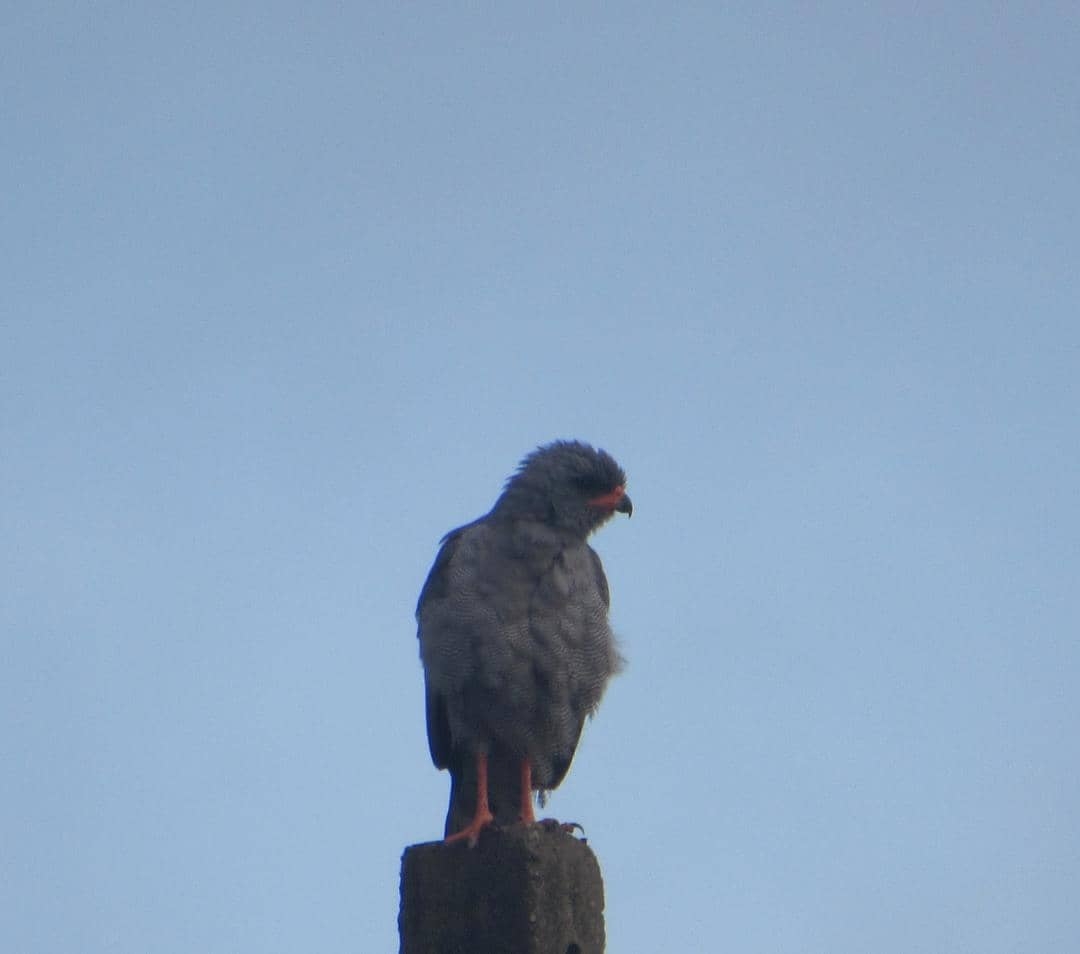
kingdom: Animalia
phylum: Chordata
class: Aves
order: Accipitriformes
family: Accipitridae
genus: Melierax
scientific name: Melierax metabates
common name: Dark chanting-goshawk
